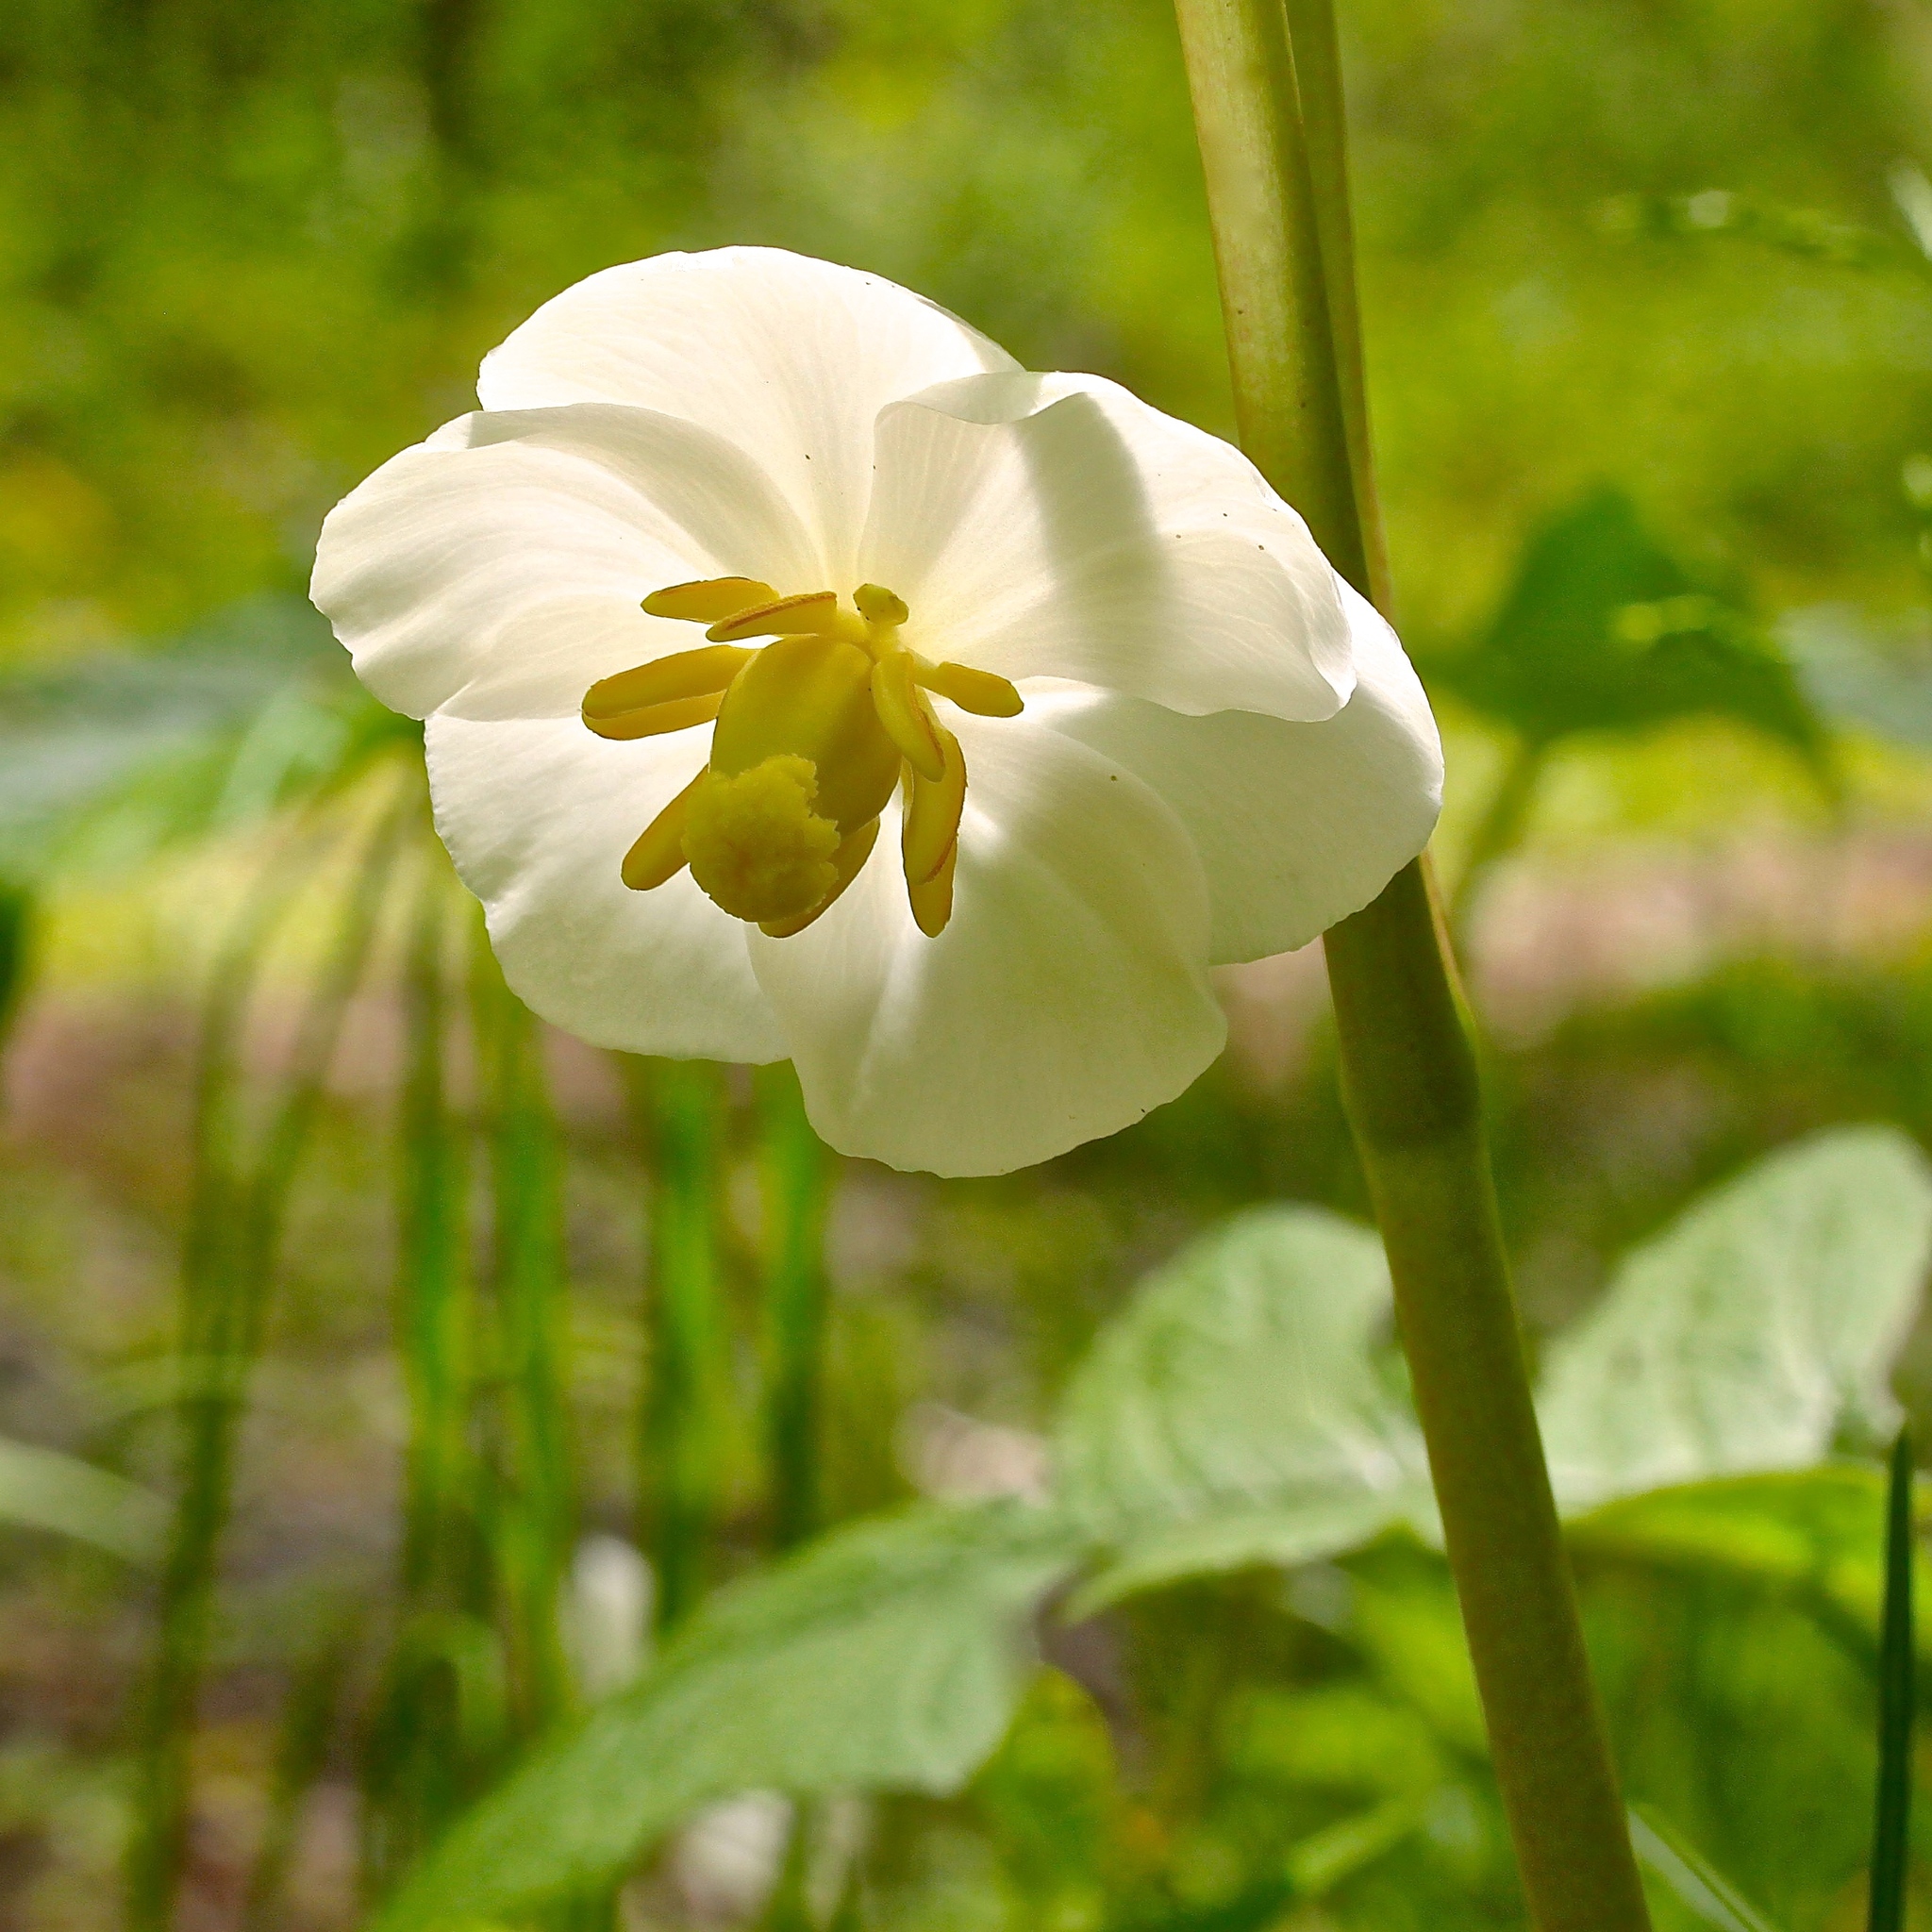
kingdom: Plantae
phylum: Tracheophyta
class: Magnoliopsida
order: Ranunculales
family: Berberidaceae
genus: Podophyllum
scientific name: Podophyllum peltatum
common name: Wild mandrake
